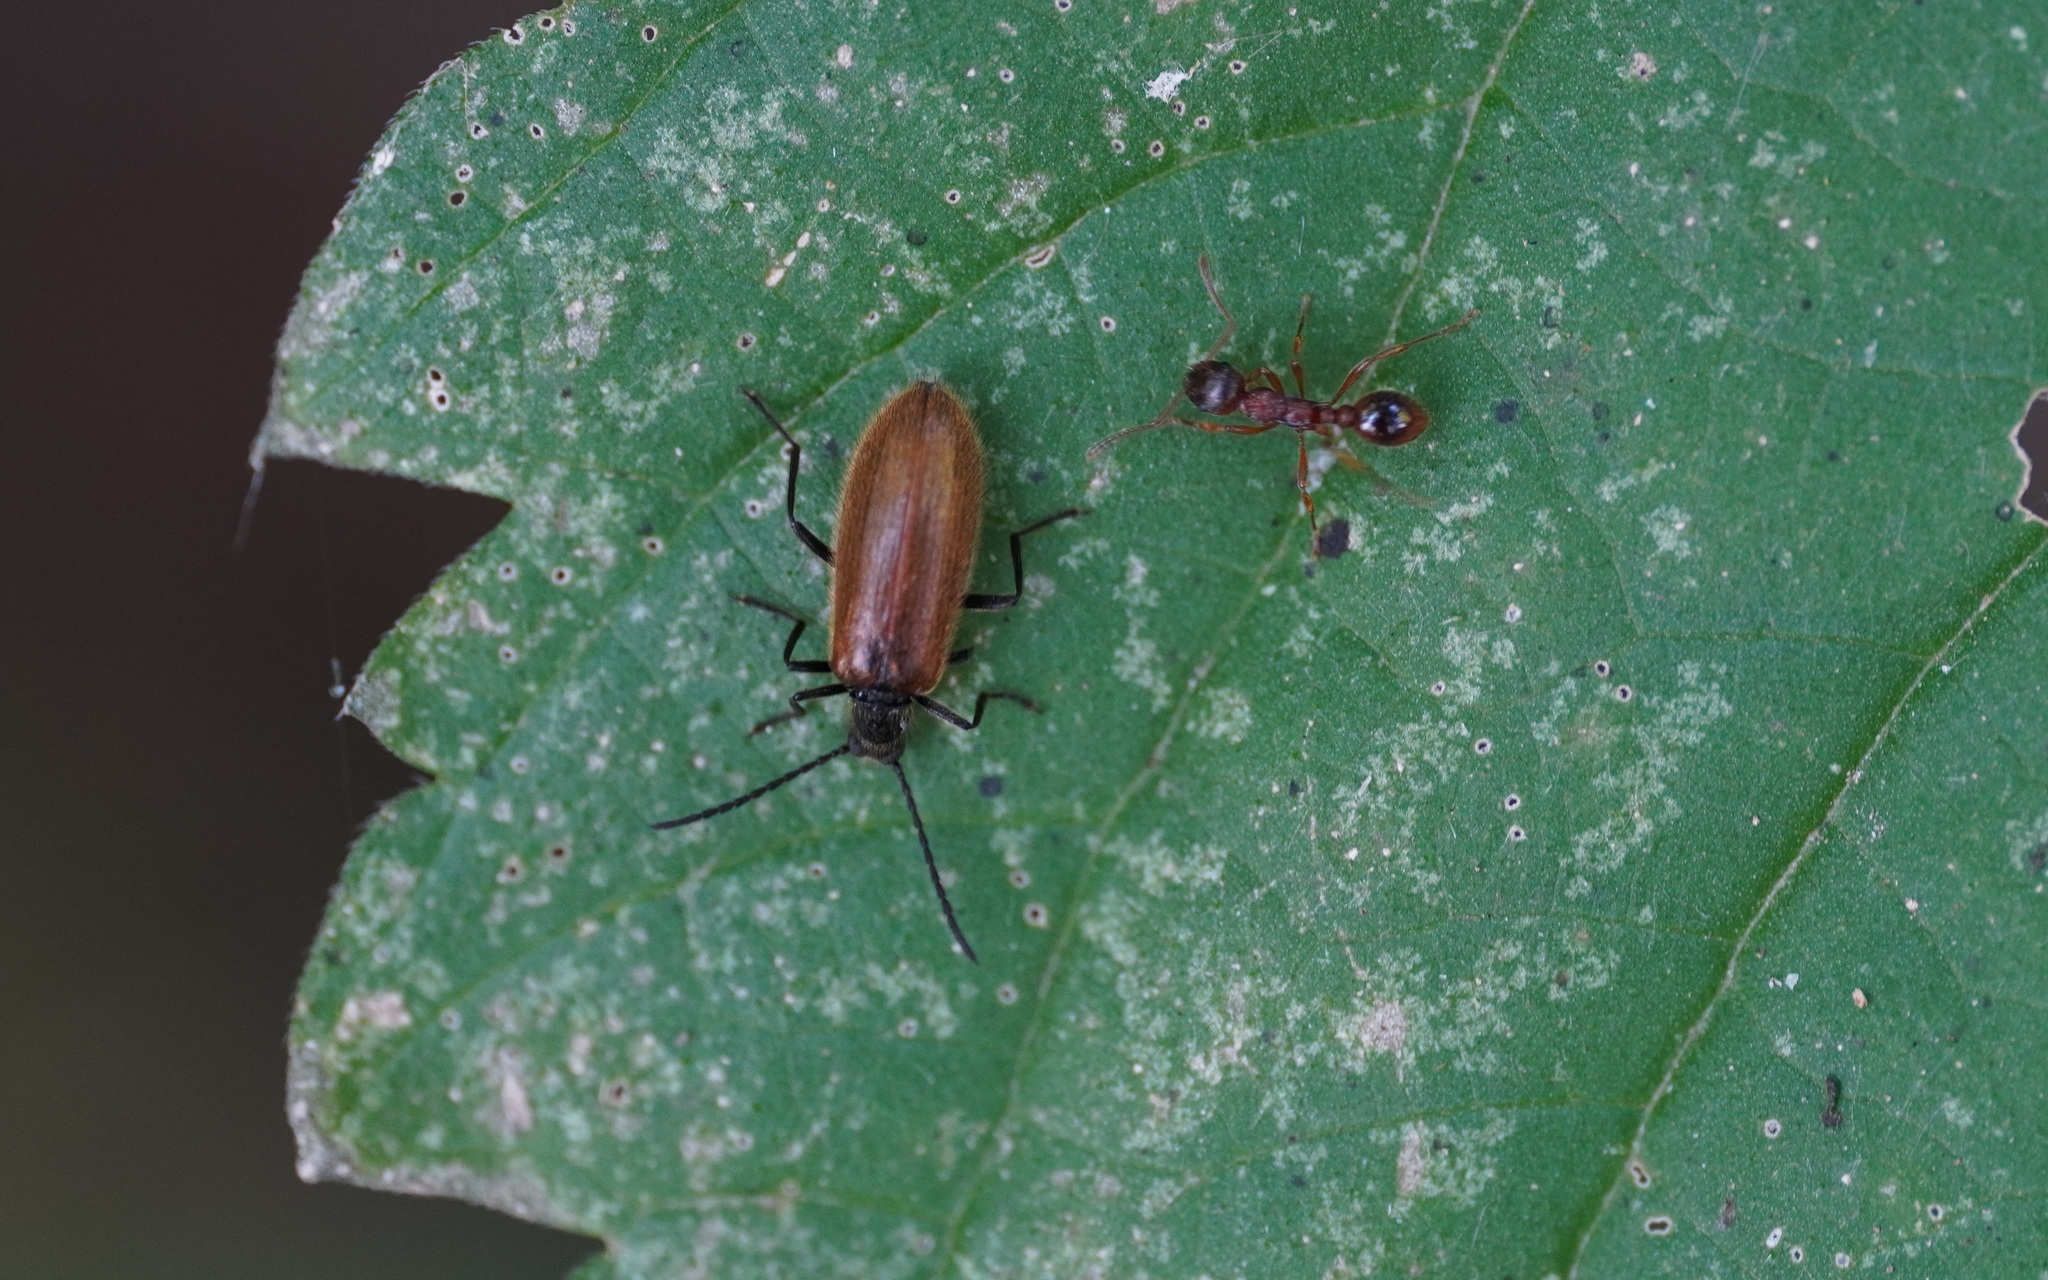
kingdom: Animalia
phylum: Arthropoda
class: Insecta
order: Coleoptera
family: Tenebrionidae
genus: Lagria
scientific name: Lagria hirta
